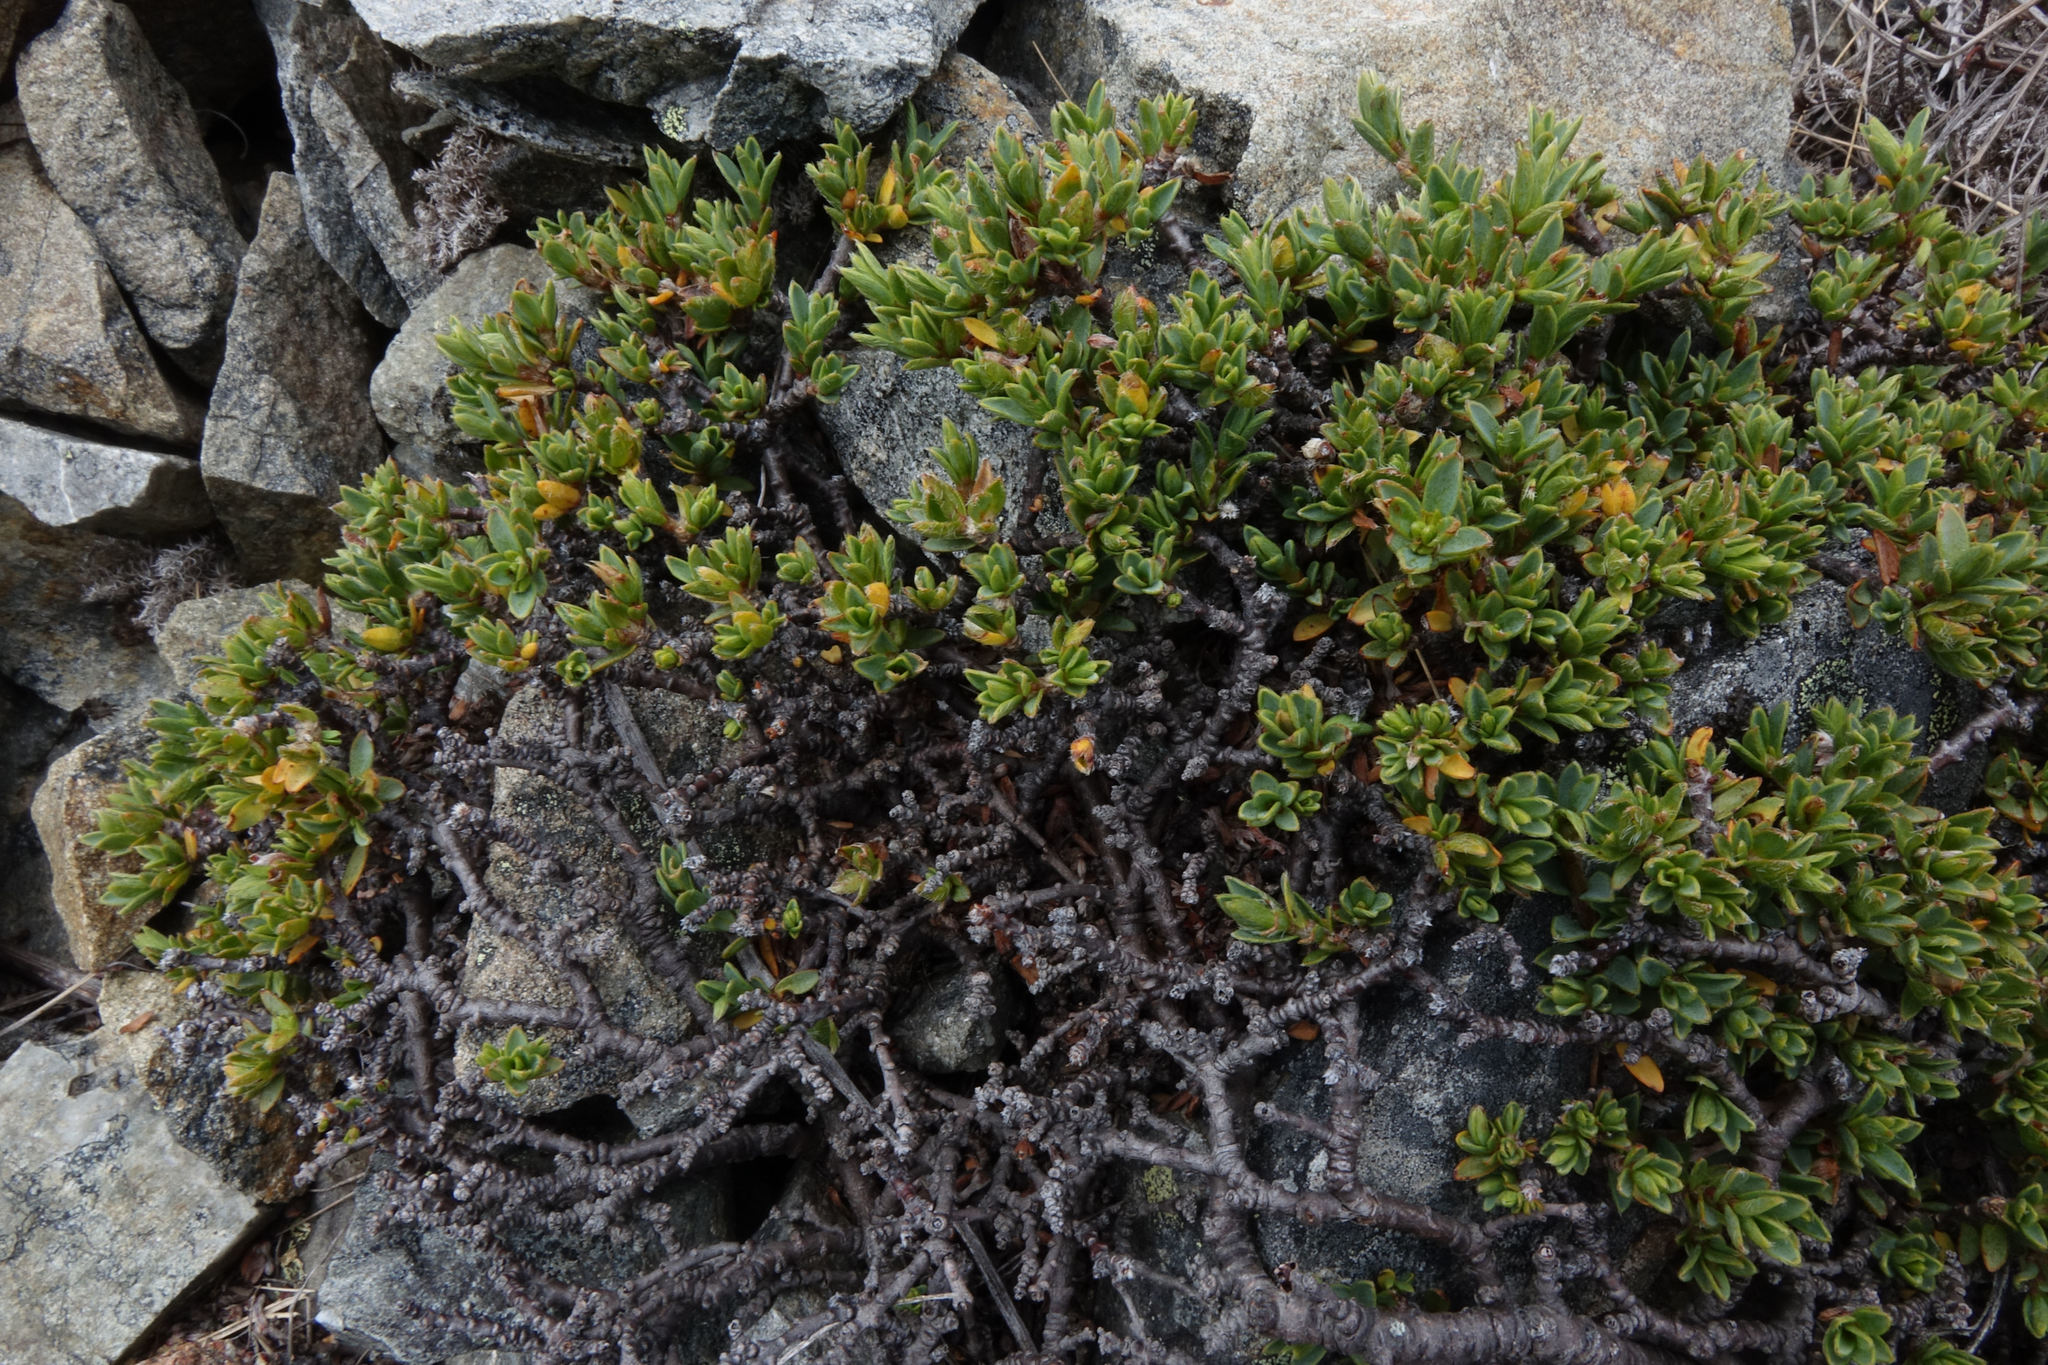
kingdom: Plantae
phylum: Tracheophyta
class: Magnoliopsida
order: Malvales
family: Thymelaeaceae
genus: Pimelea
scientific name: Pimelea notia
